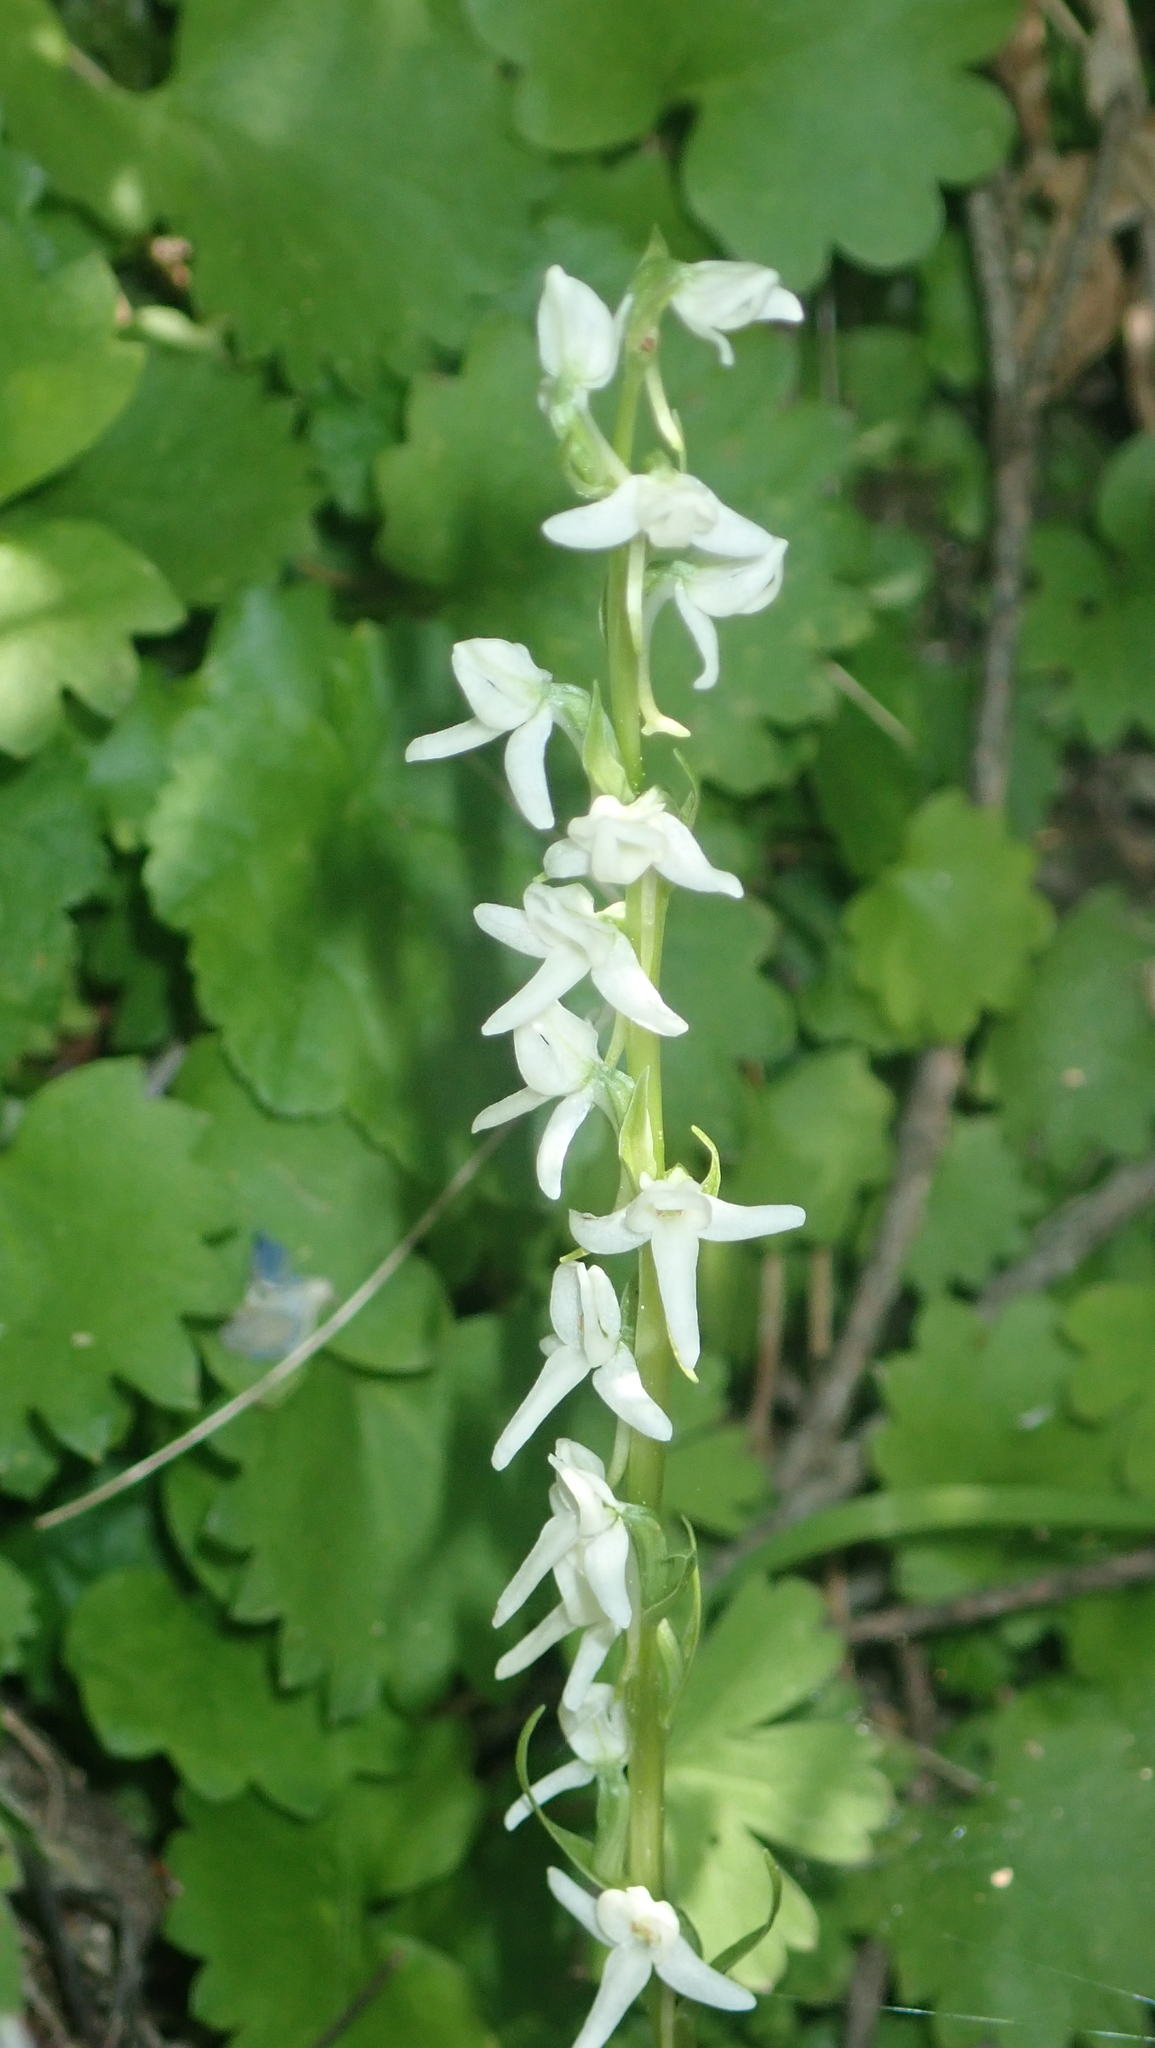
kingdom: Plantae
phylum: Tracheophyta
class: Liliopsida
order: Asparagales
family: Orchidaceae
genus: Platanthera
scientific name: Platanthera dilatata
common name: Bog candles
